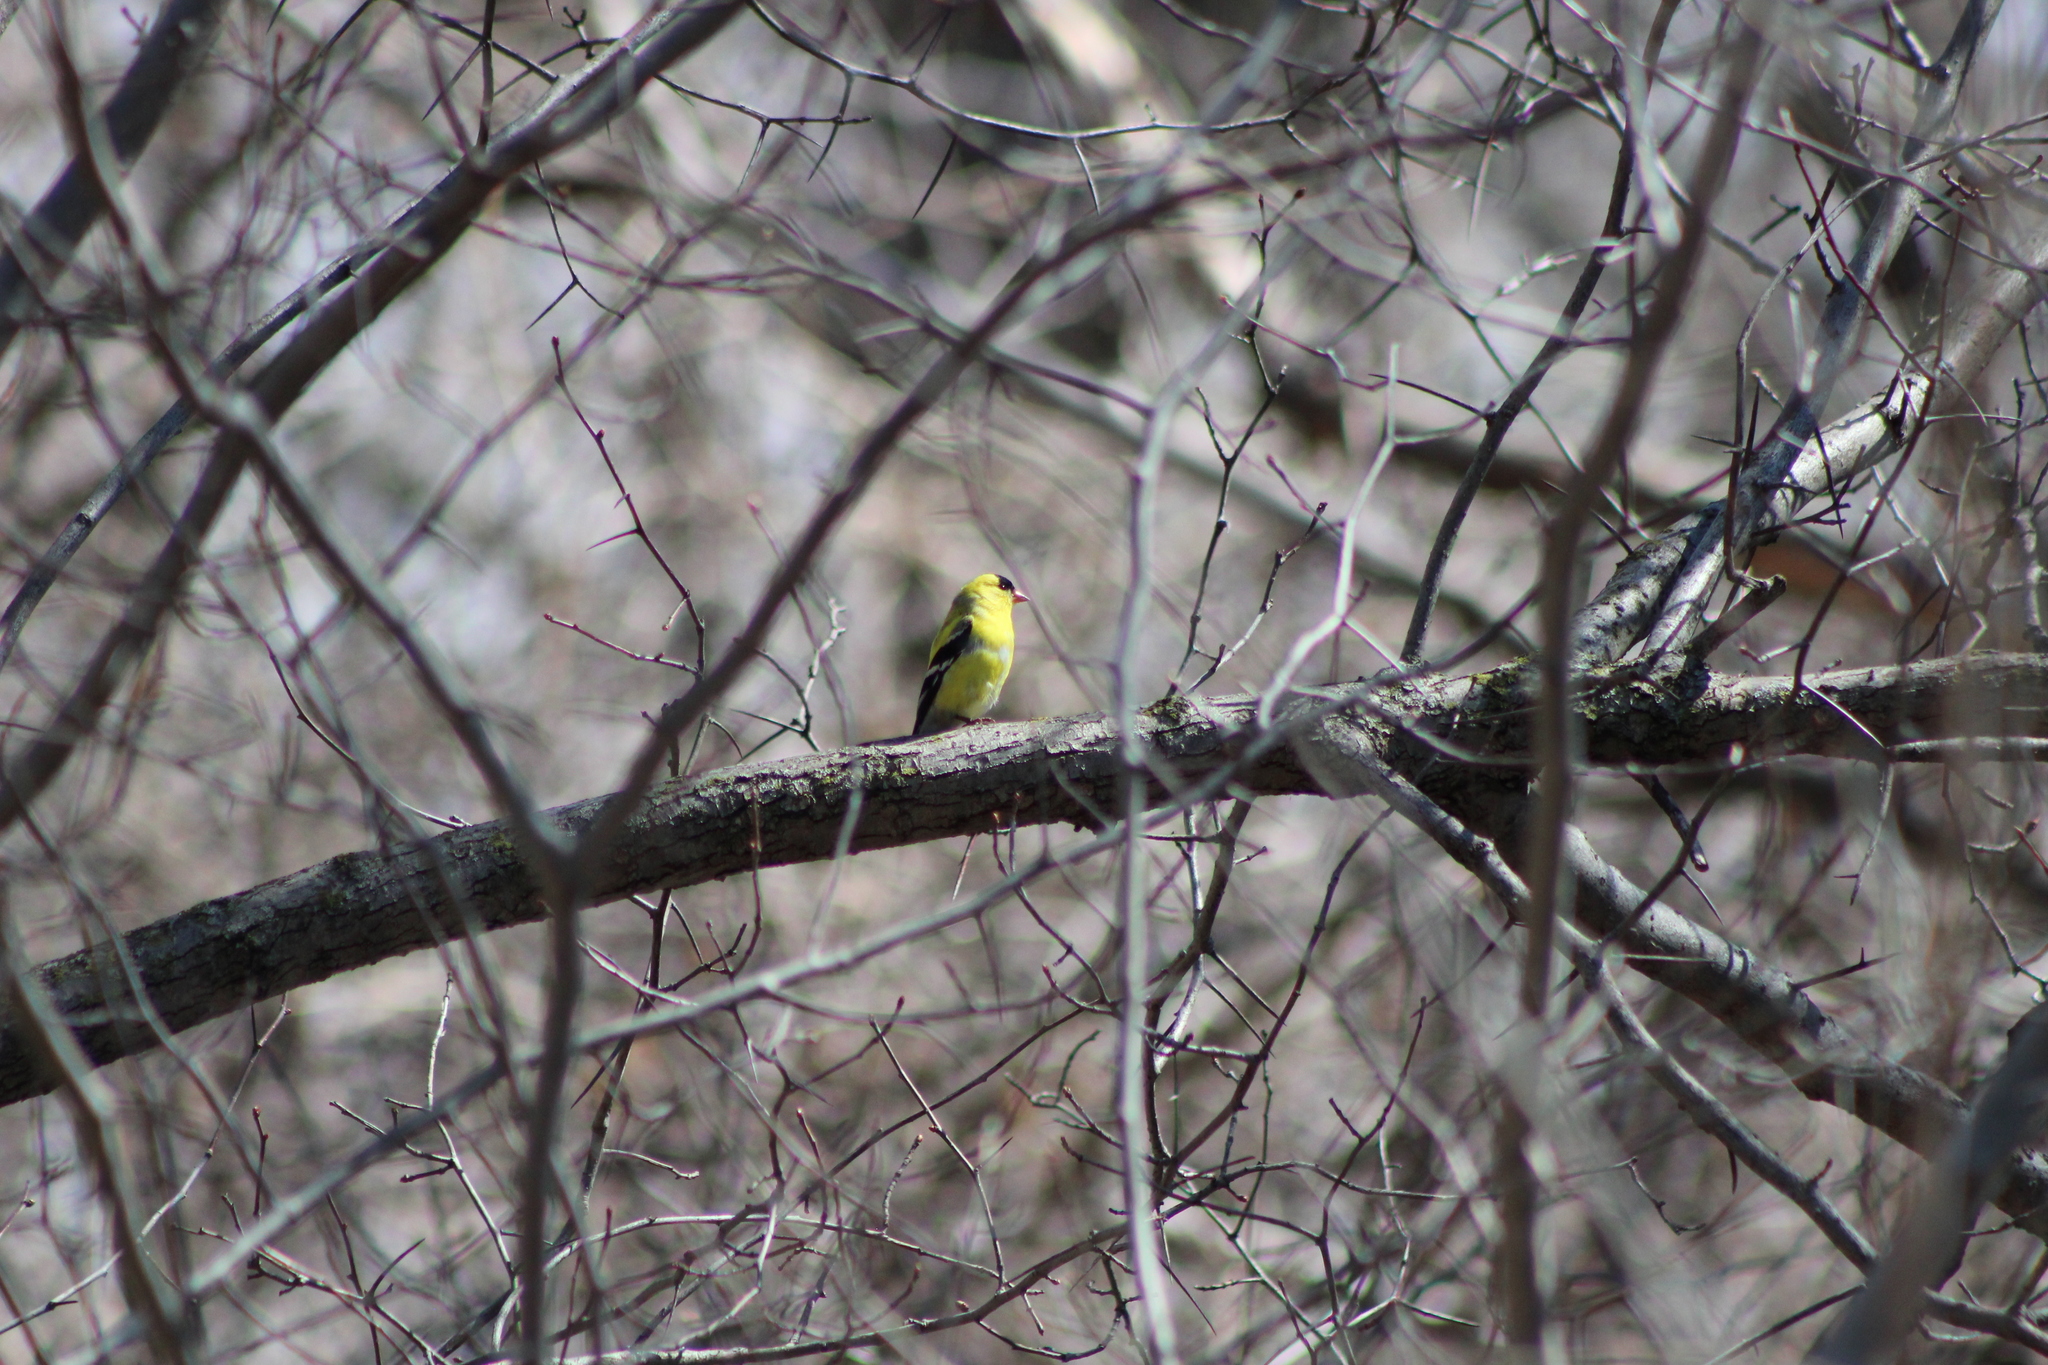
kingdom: Animalia
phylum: Chordata
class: Aves
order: Passeriformes
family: Fringillidae
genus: Spinus
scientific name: Spinus tristis
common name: American goldfinch
